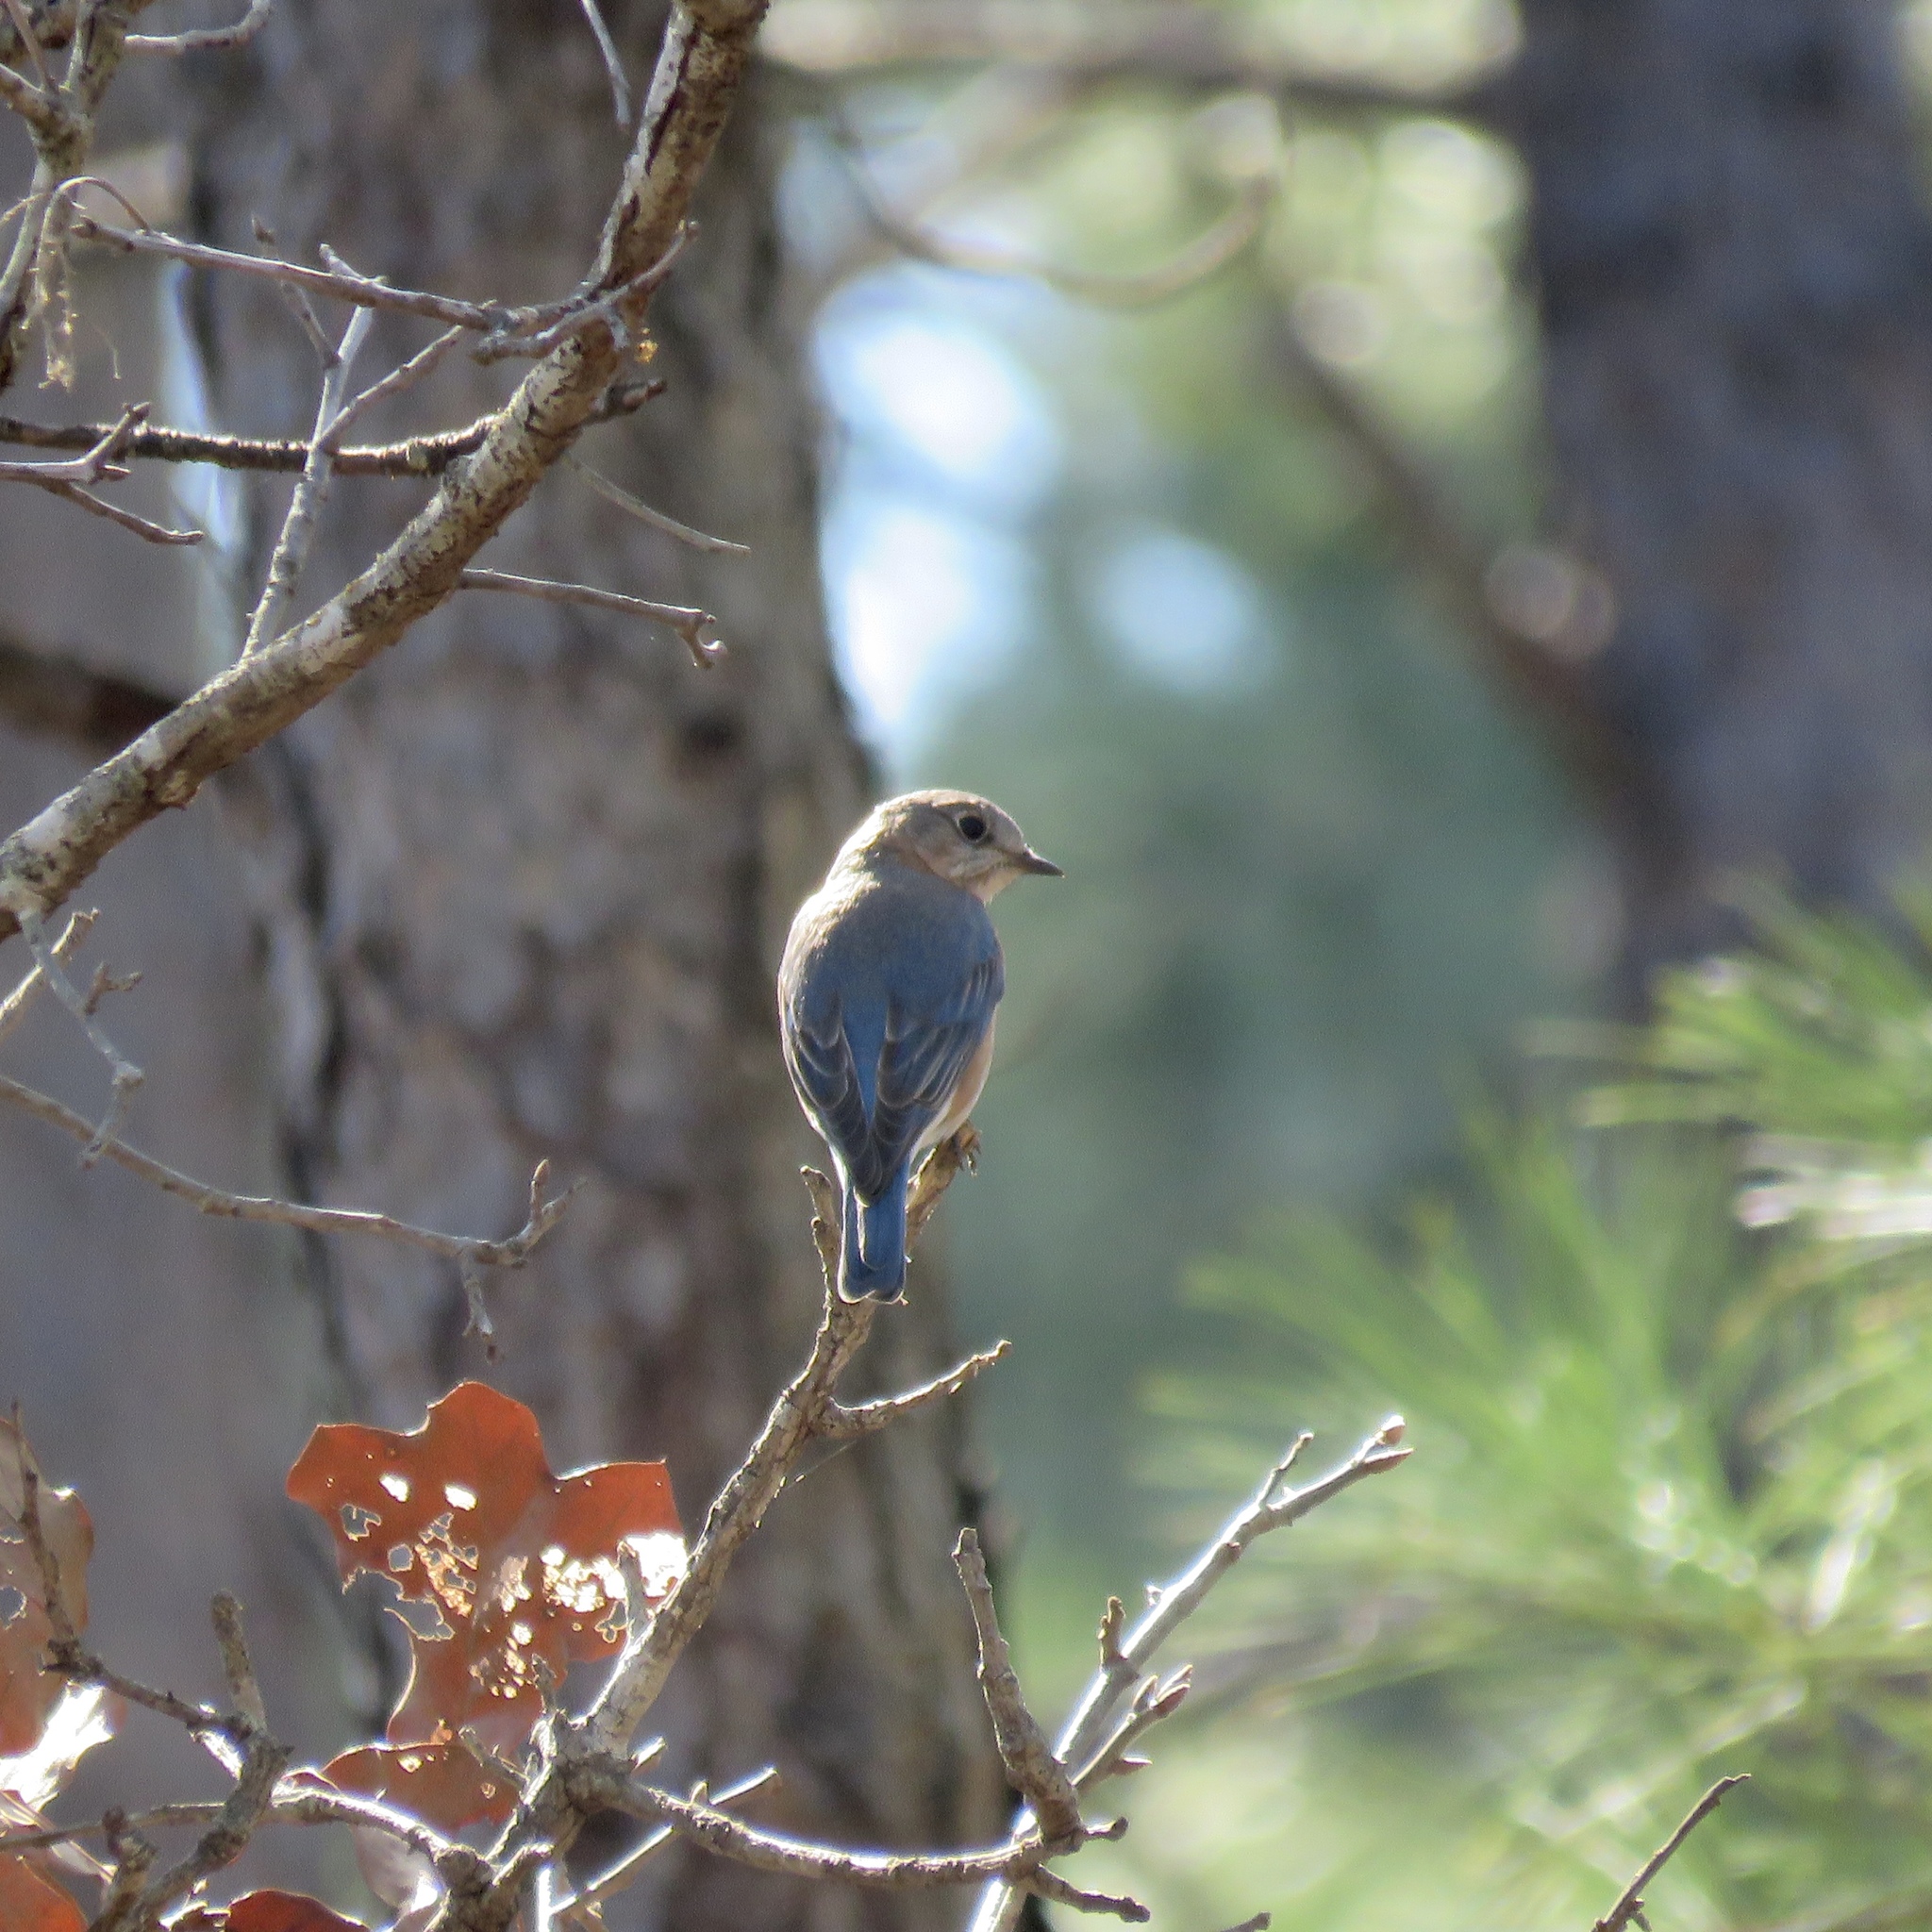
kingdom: Animalia
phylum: Chordata
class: Aves
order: Passeriformes
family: Turdidae
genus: Sialia
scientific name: Sialia sialis
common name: Eastern bluebird
